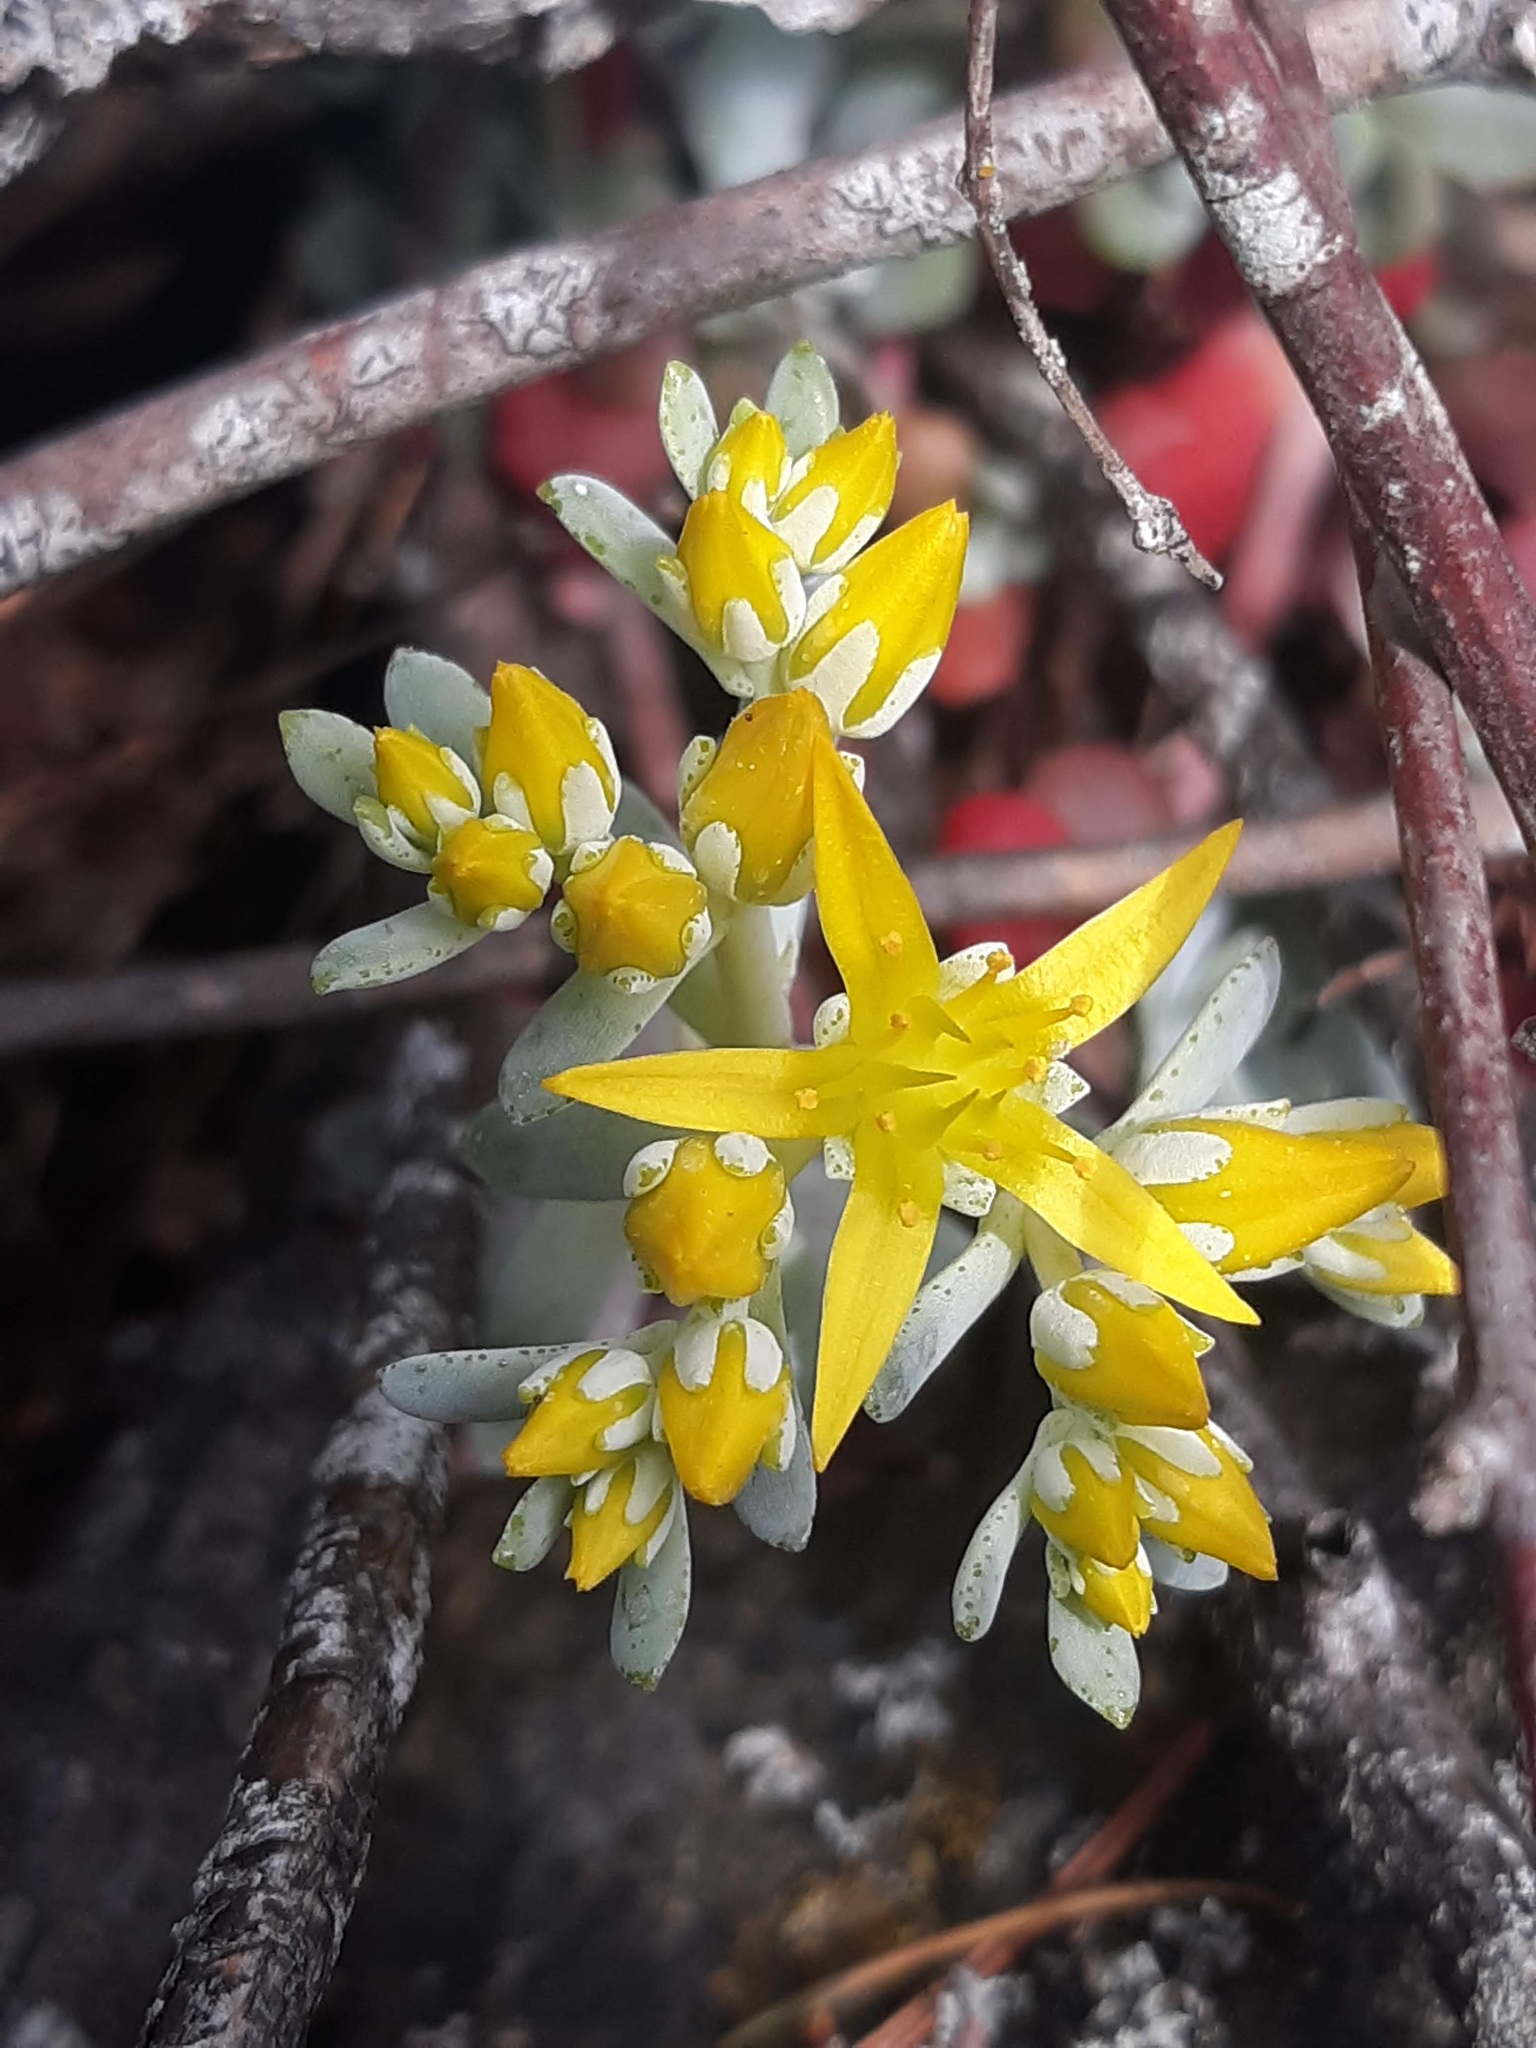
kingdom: Plantae
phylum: Tracheophyta
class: Magnoliopsida
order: Saxifragales
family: Crassulaceae
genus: Sedum
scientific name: Sedum spathulifolium
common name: Colorado stonecrop
